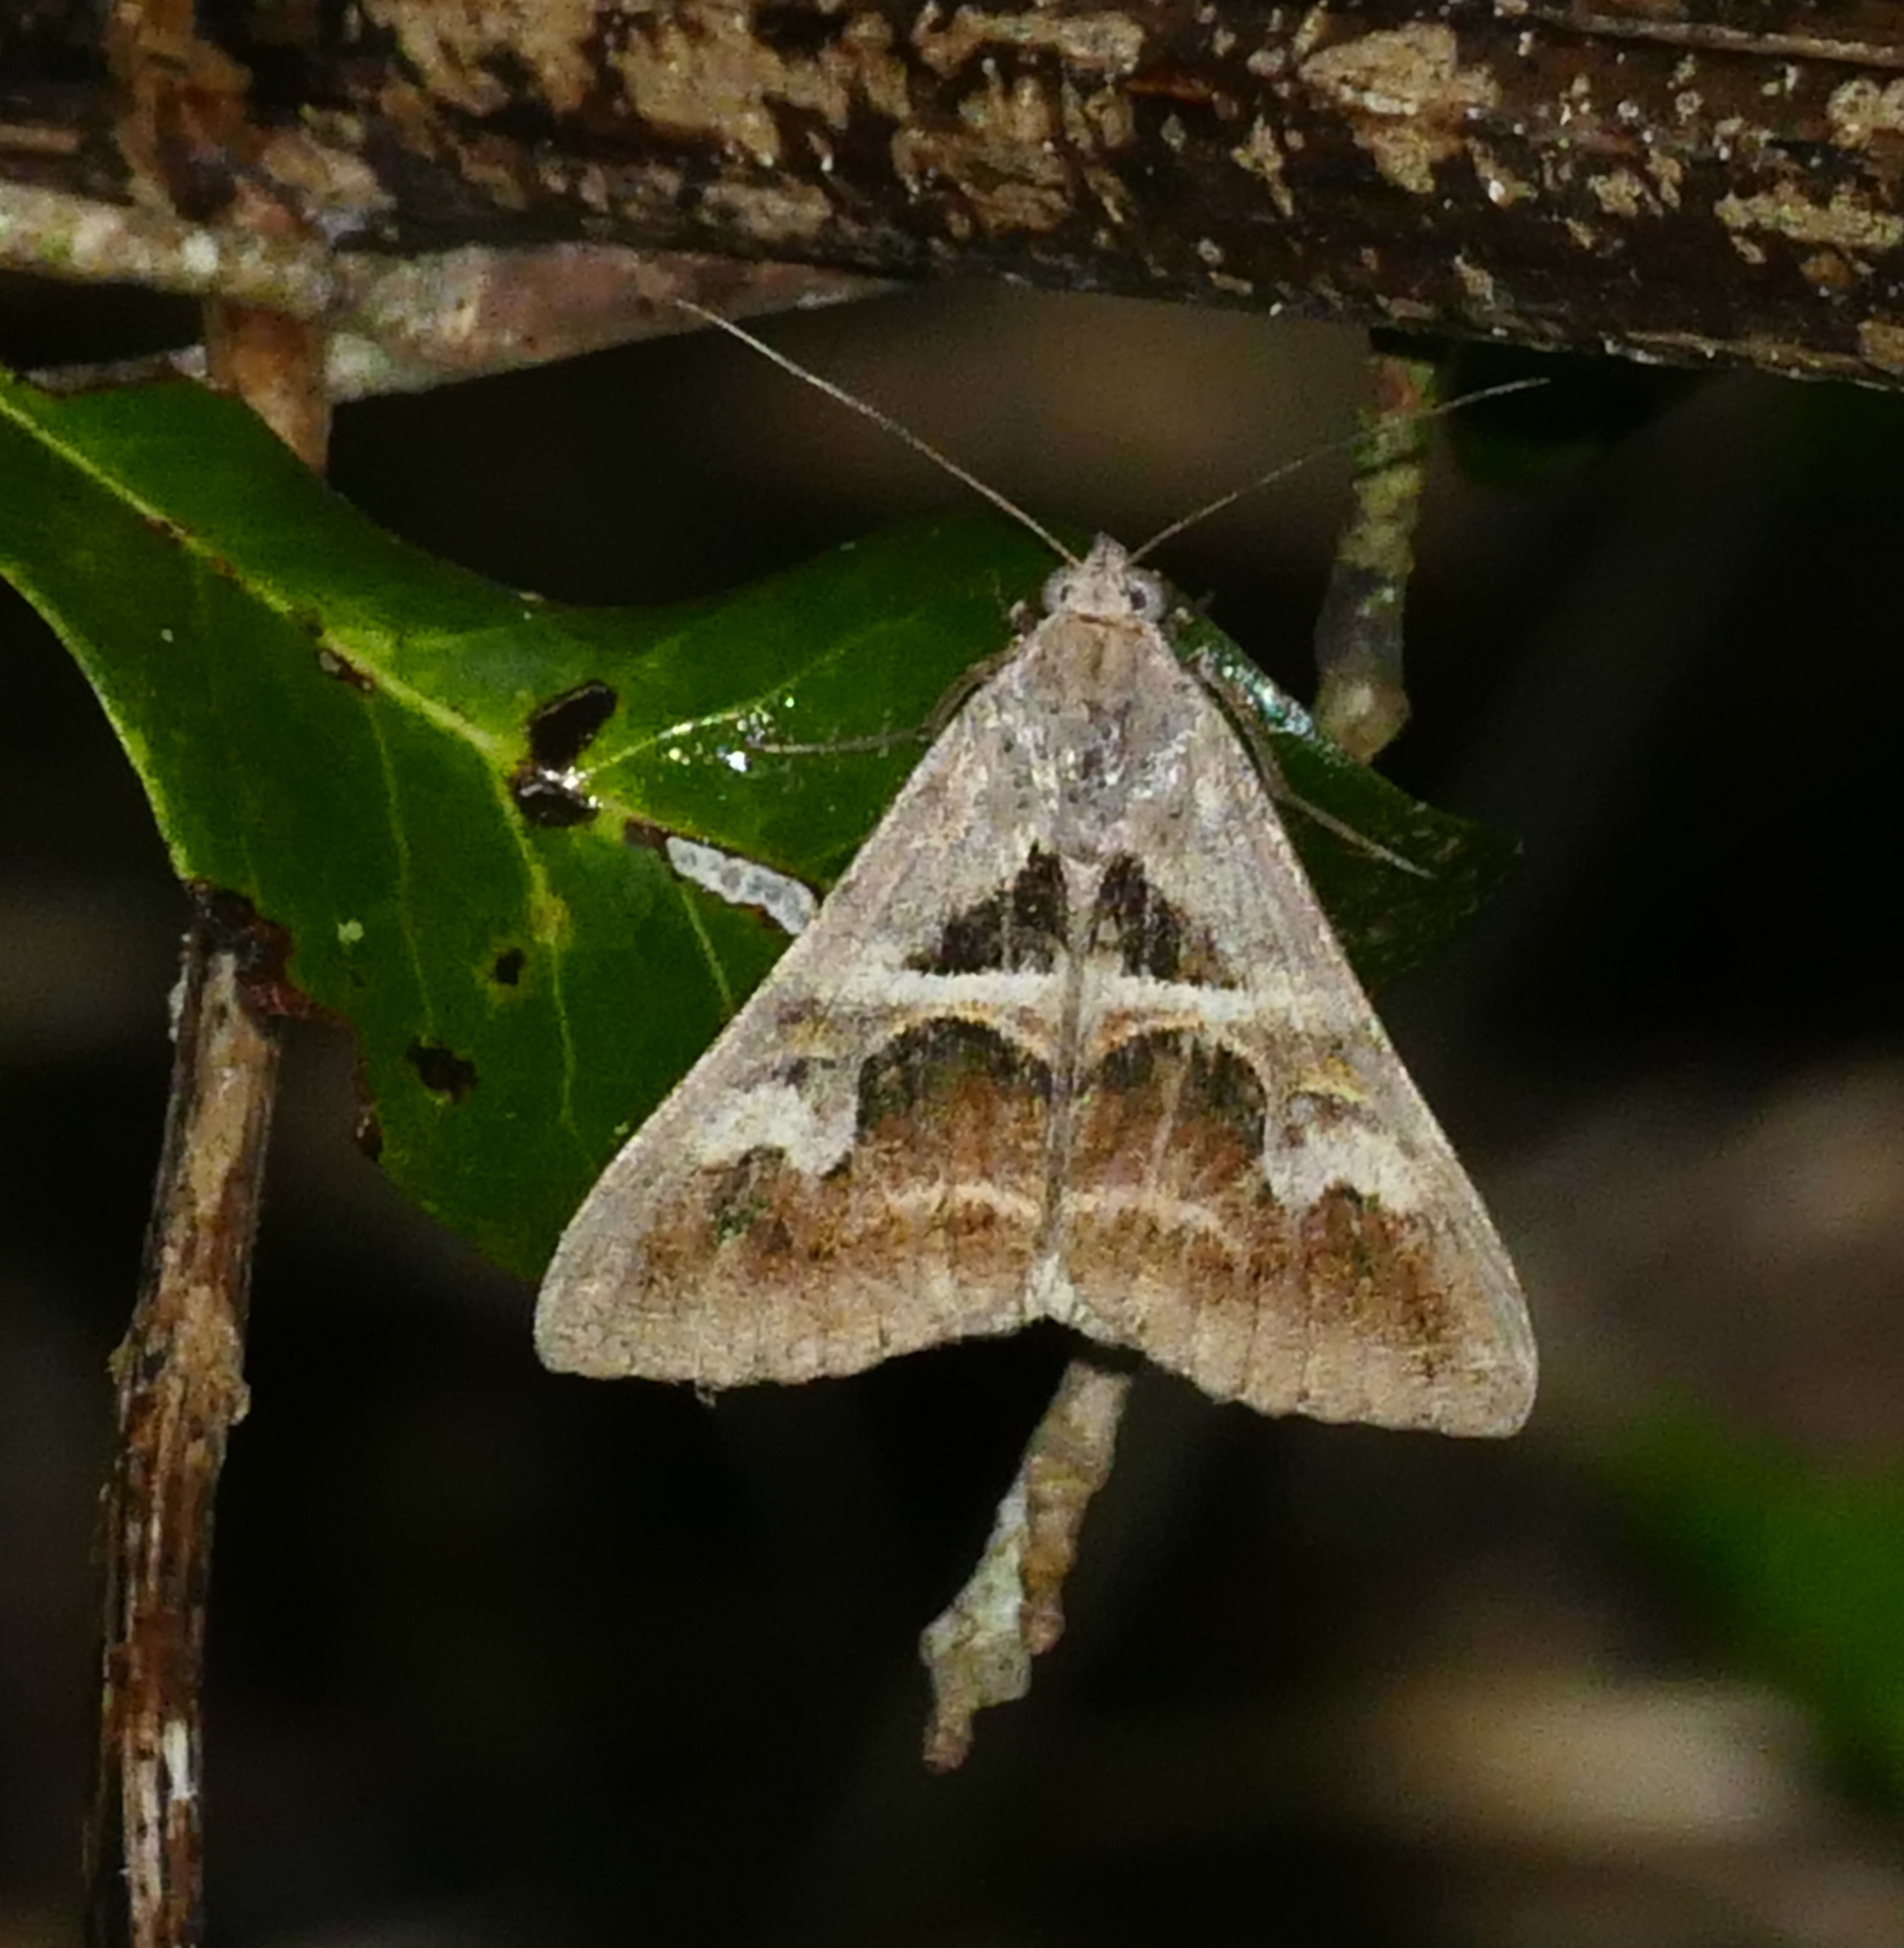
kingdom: Animalia
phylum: Arthropoda
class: Insecta
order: Lepidoptera
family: Erebidae
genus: Melipotis
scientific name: Melipotis cellaris
